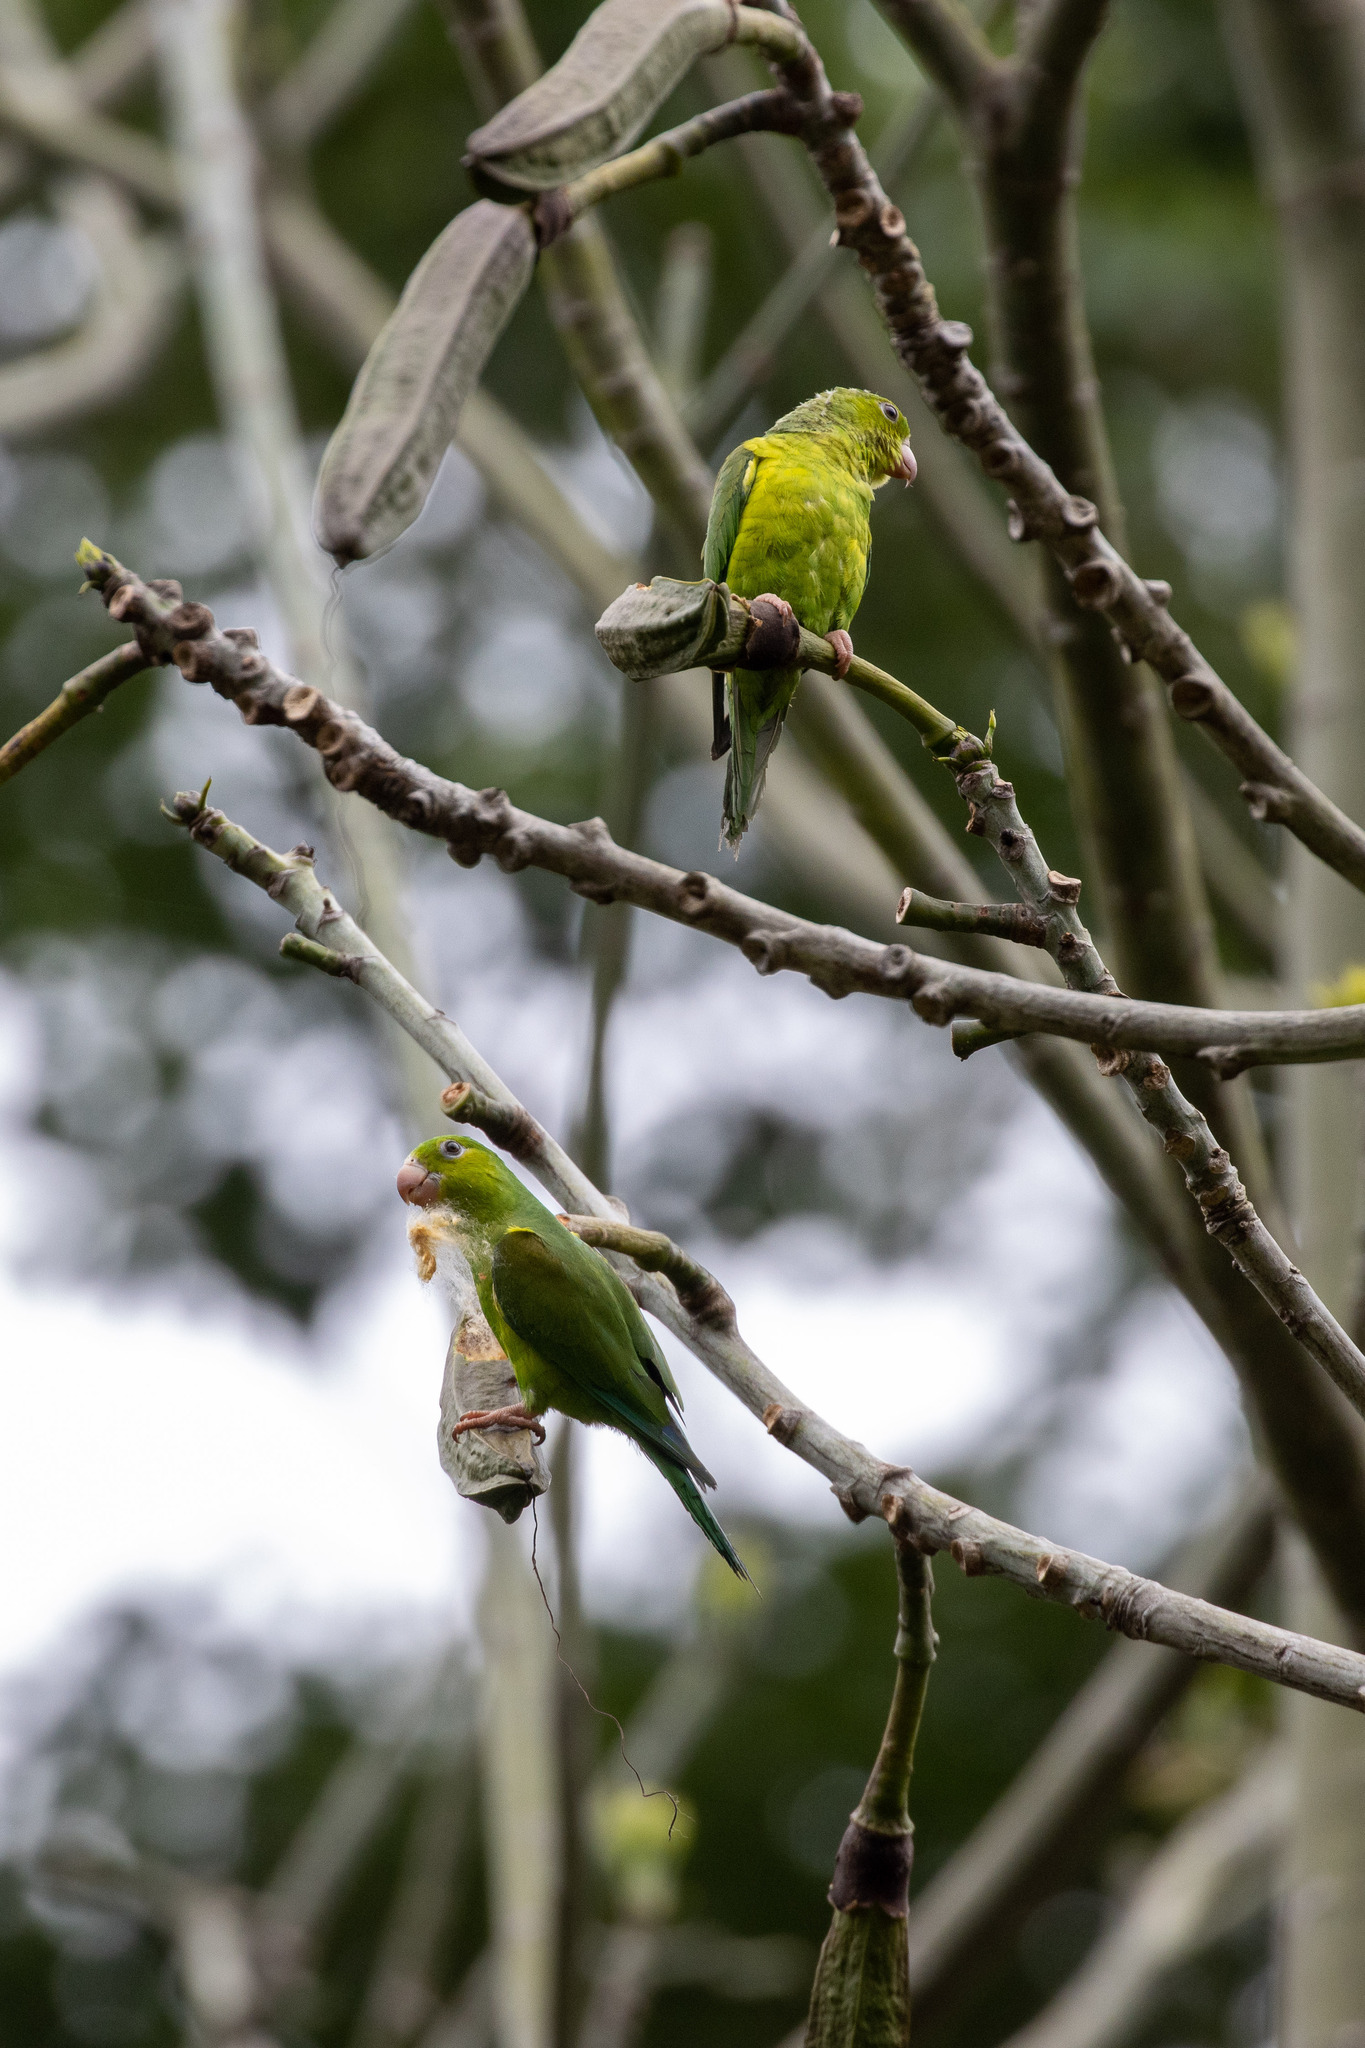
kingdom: Animalia
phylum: Chordata
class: Aves
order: Psittaciformes
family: Psittacidae
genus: Brotogeris
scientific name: Brotogeris tirica
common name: Plain parakeet
